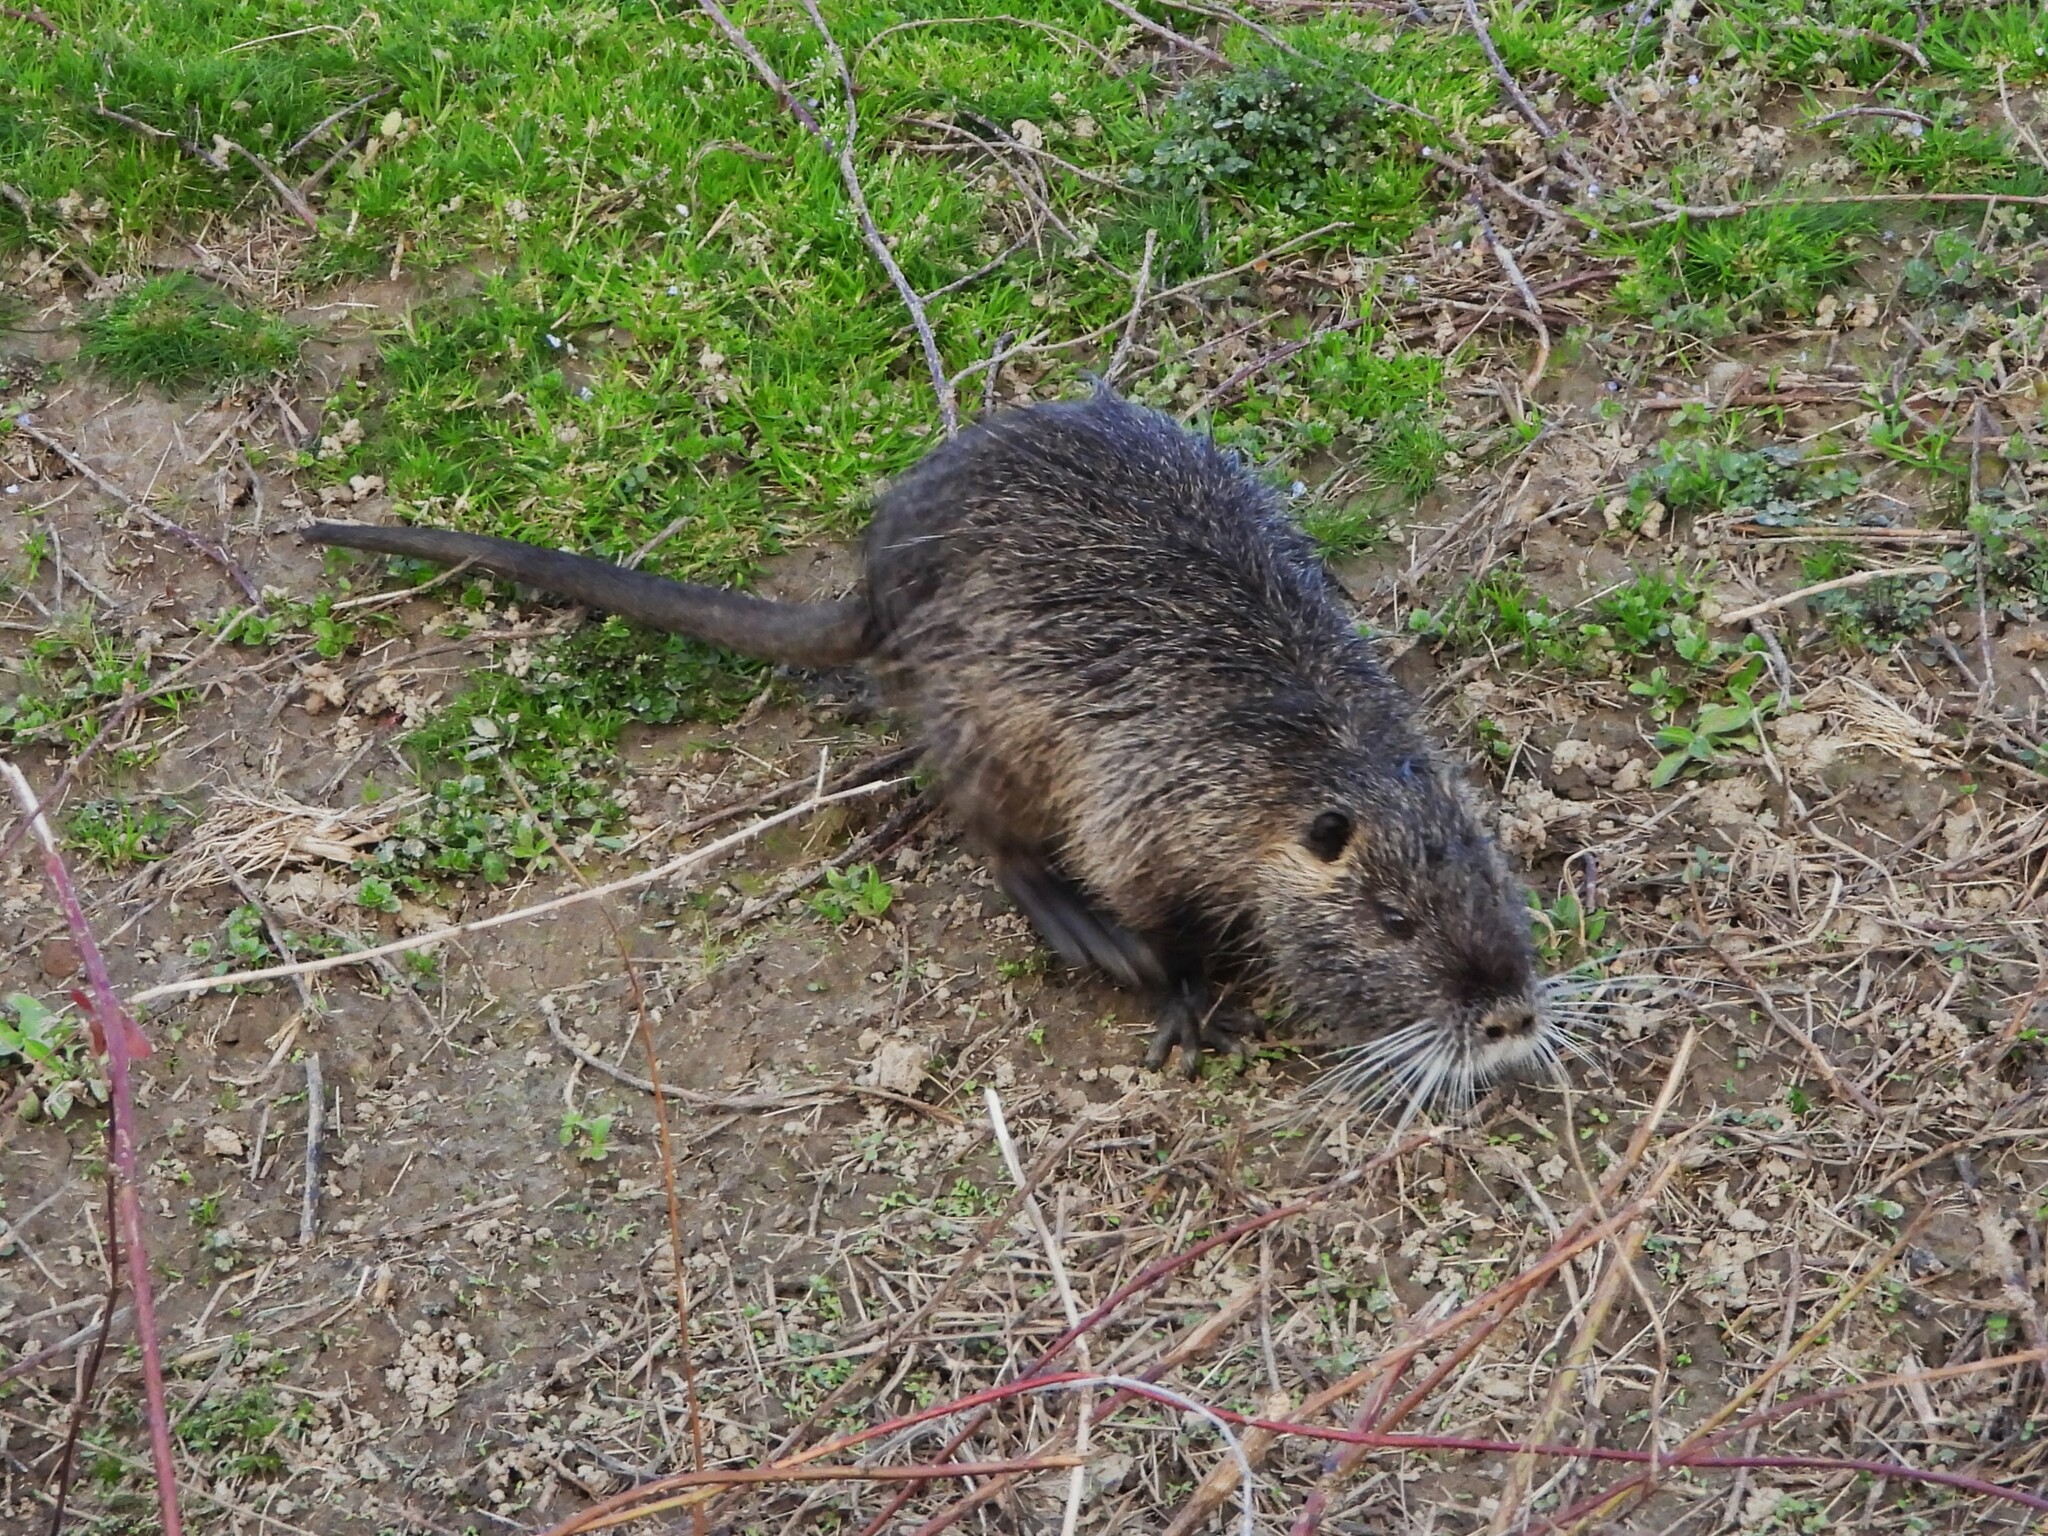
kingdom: Animalia
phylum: Chordata
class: Mammalia
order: Rodentia
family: Myocastoridae
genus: Myocastor
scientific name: Myocastor coypus
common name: Coypu
